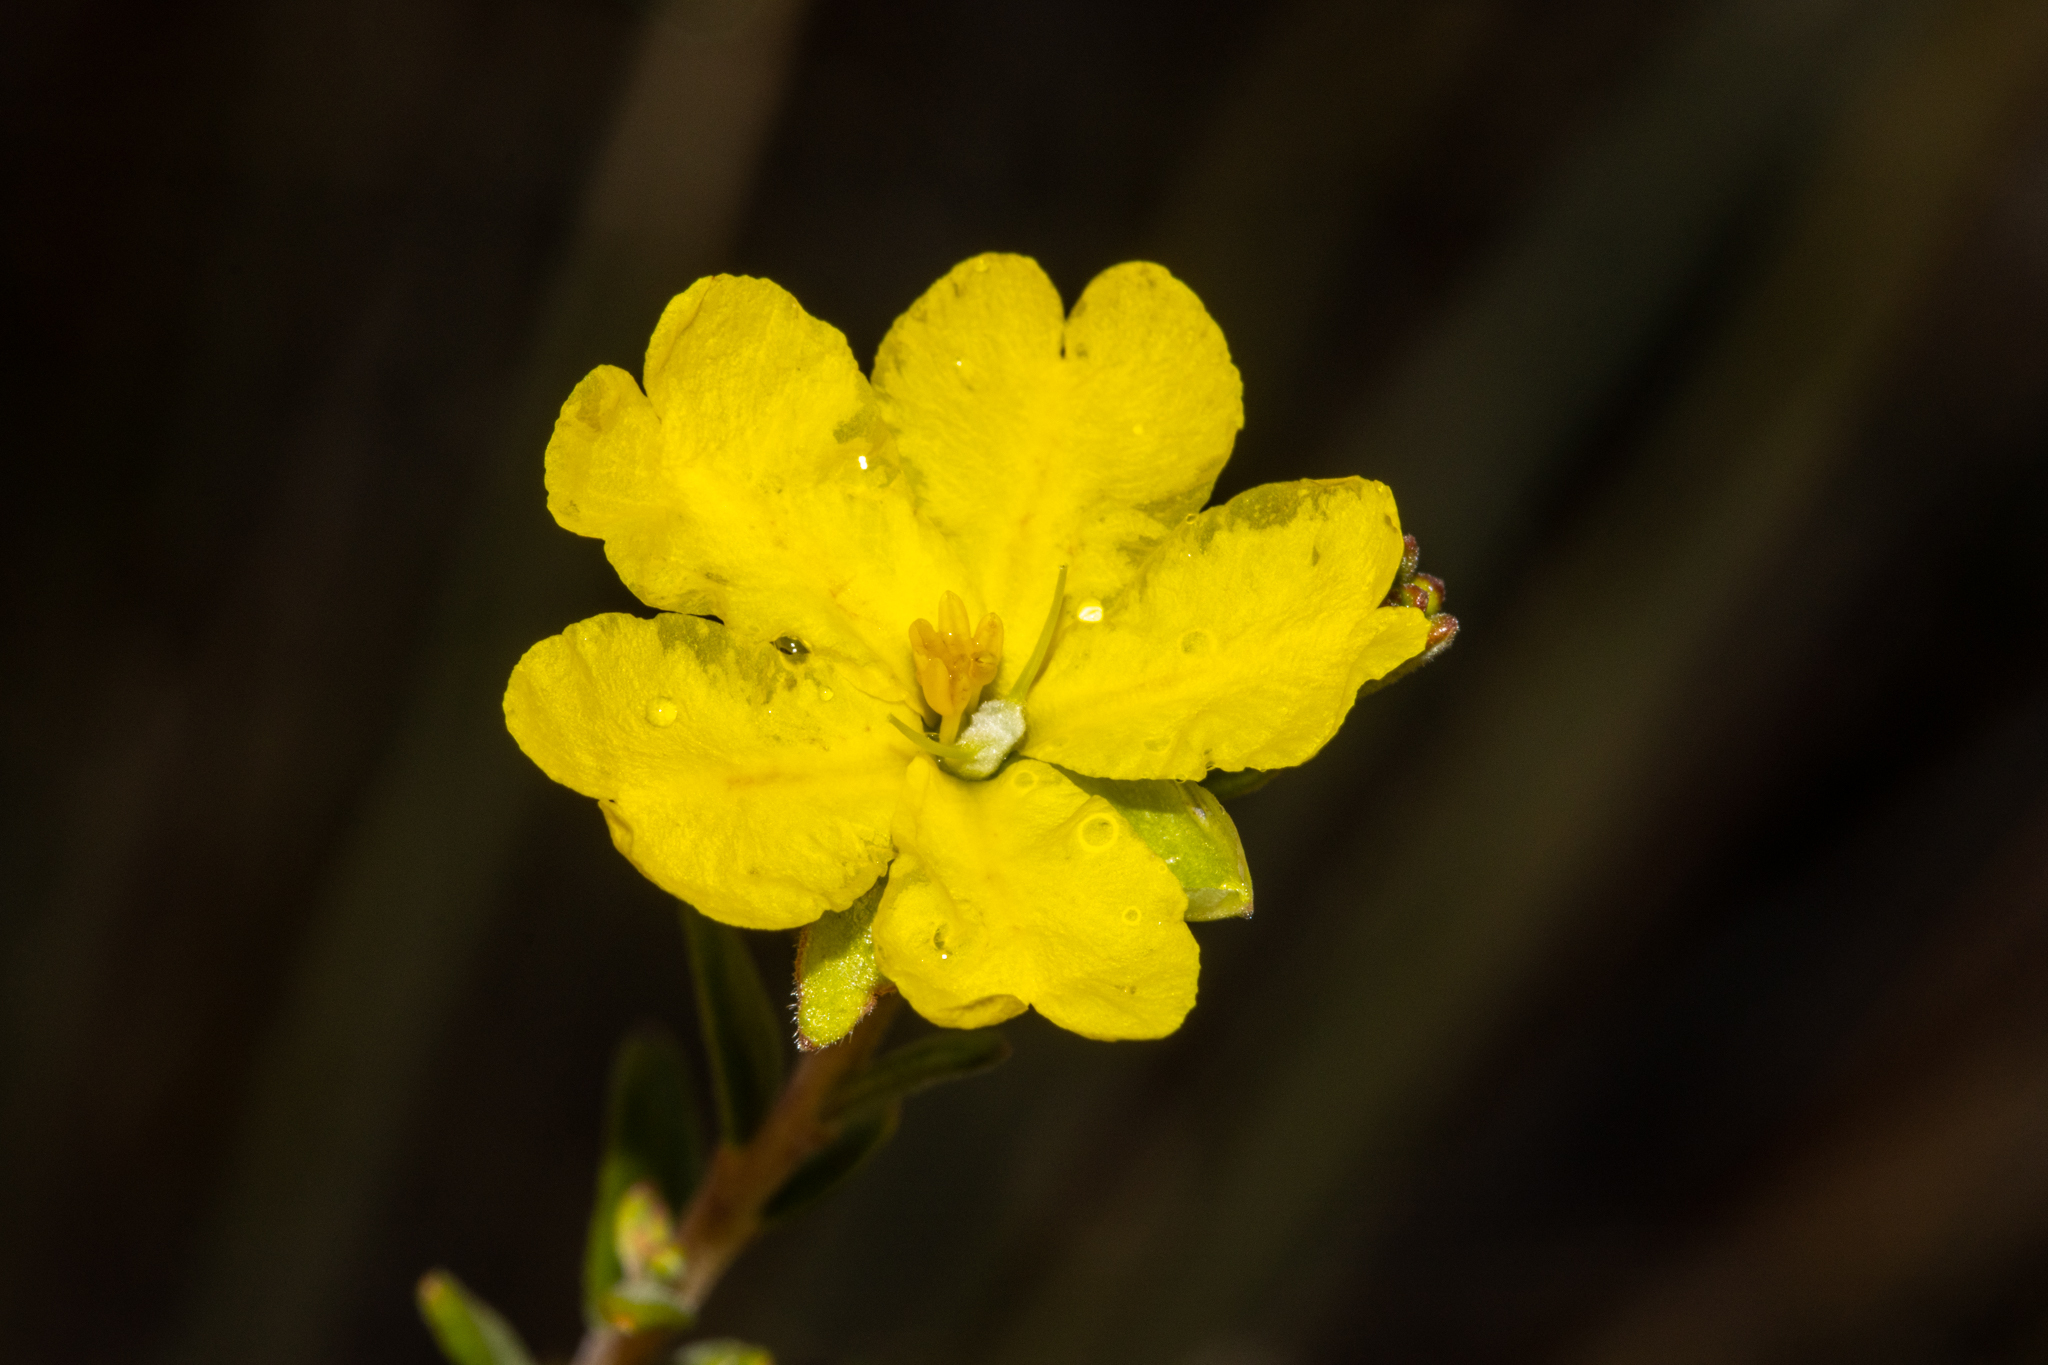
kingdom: Plantae
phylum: Tracheophyta
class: Magnoliopsida
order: Dilleniales
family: Dilleniaceae
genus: Hibbertia
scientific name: Hibbertia setifera
